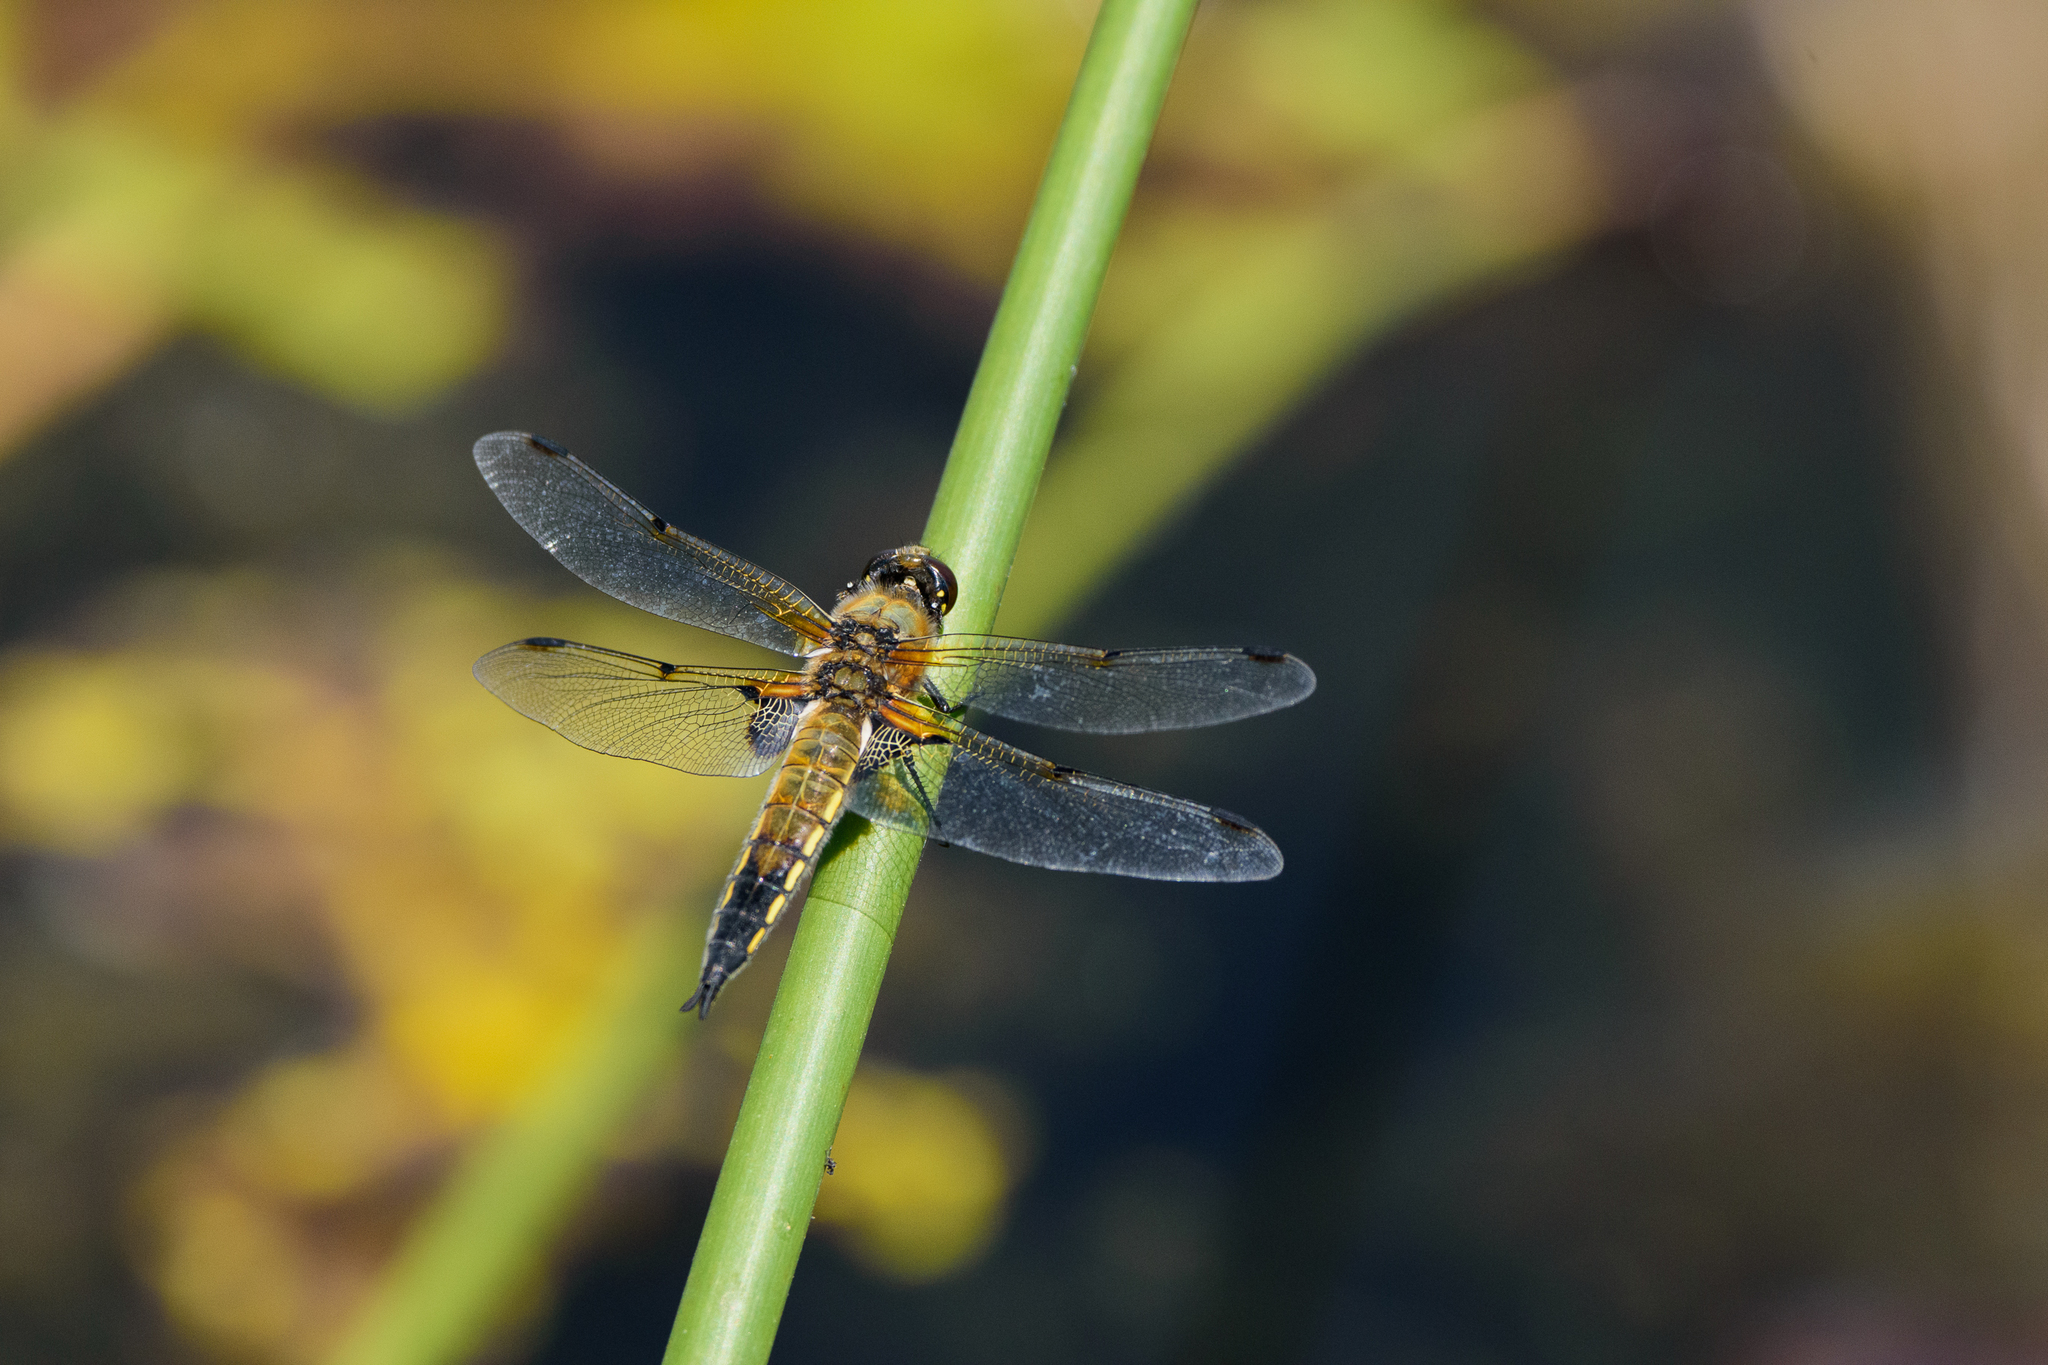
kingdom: Animalia
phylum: Arthropoda
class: Insecta
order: Odonata
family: Libellulidae
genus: Libellula
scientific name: Libellula quadrimaculata
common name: Four-spotted chaser
